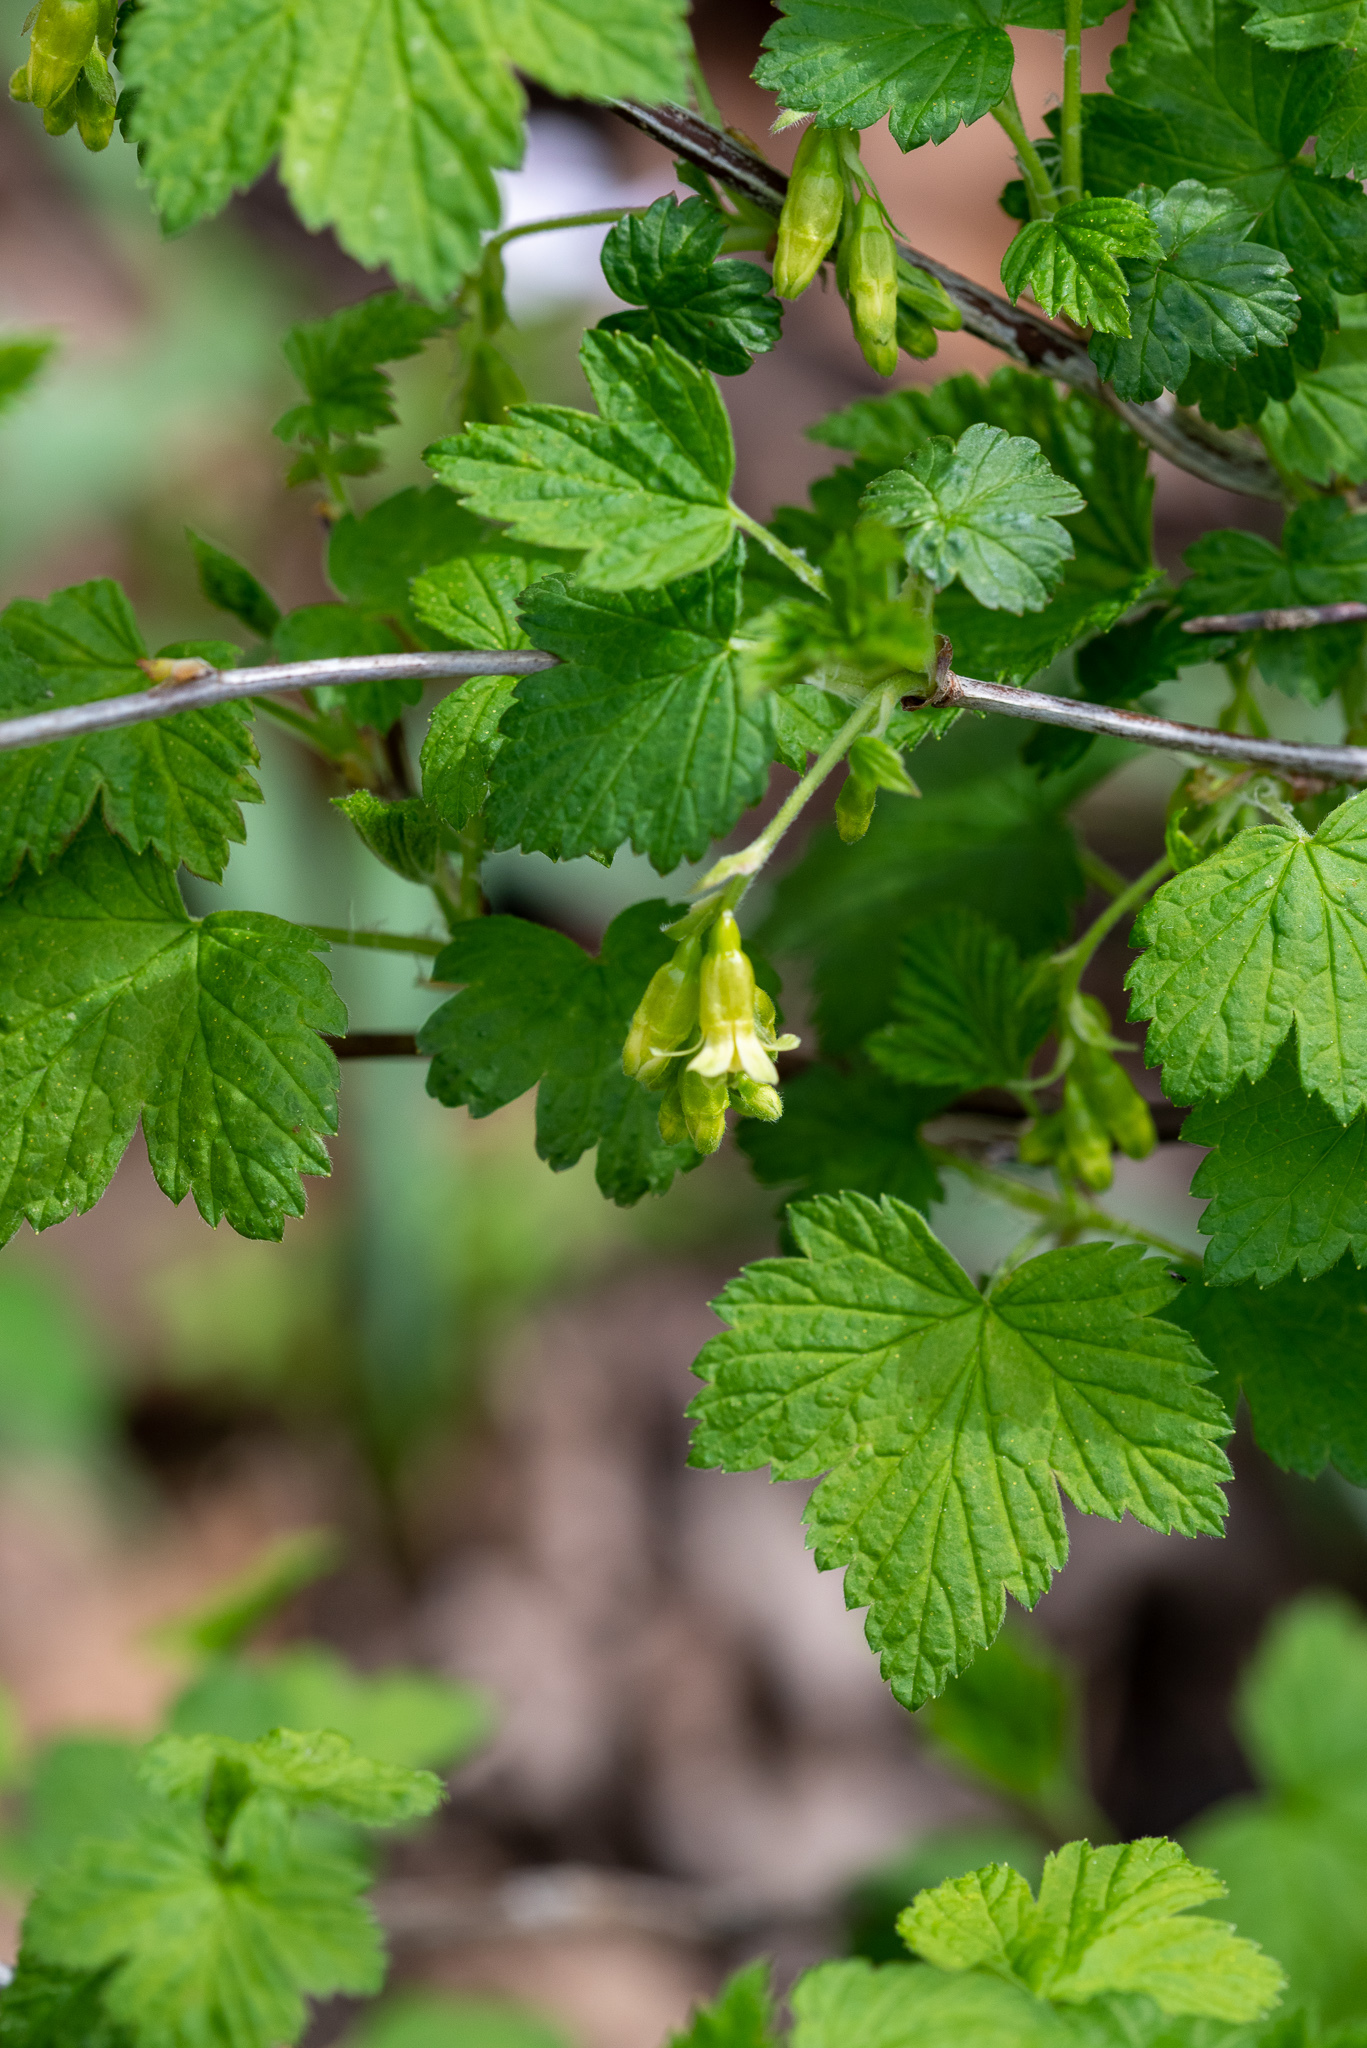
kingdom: Plantae
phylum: Tracheophyta
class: Magnoliopsida
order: Saxifragales
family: Grossulariaceae
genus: Ribes
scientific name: Ribes americanum
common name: American black currant
